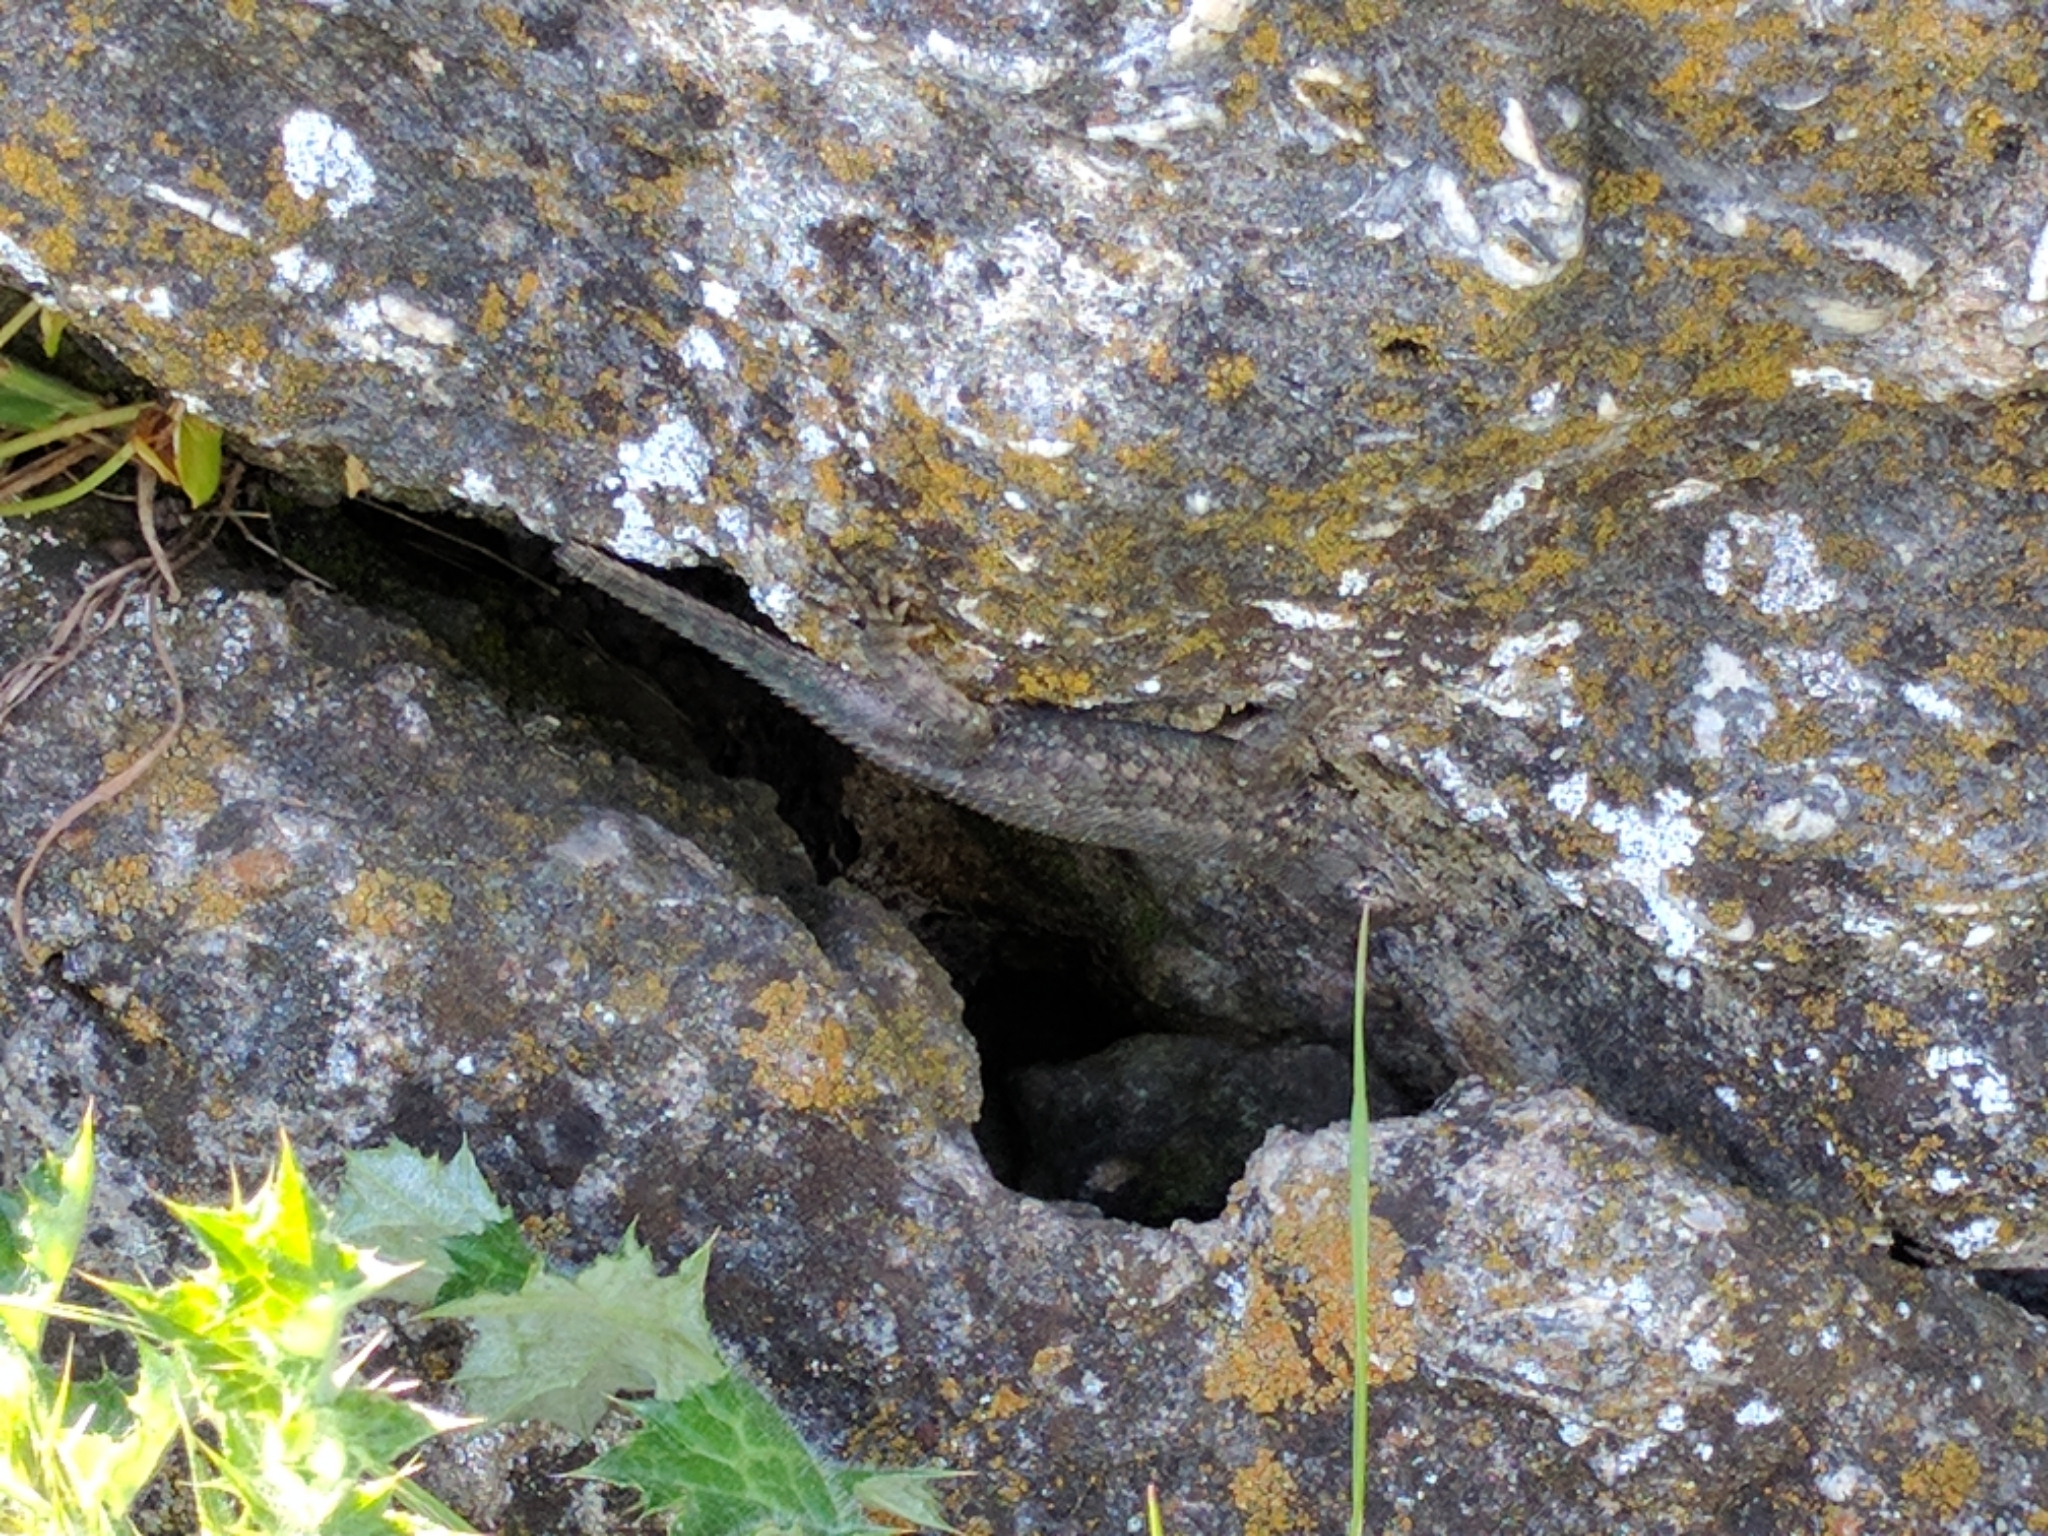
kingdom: Animalia
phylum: Chordata
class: Squamata
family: Phrynosomatidae
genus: Sceloporus
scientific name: Sceloporus occidentalis
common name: Western fence lizard
